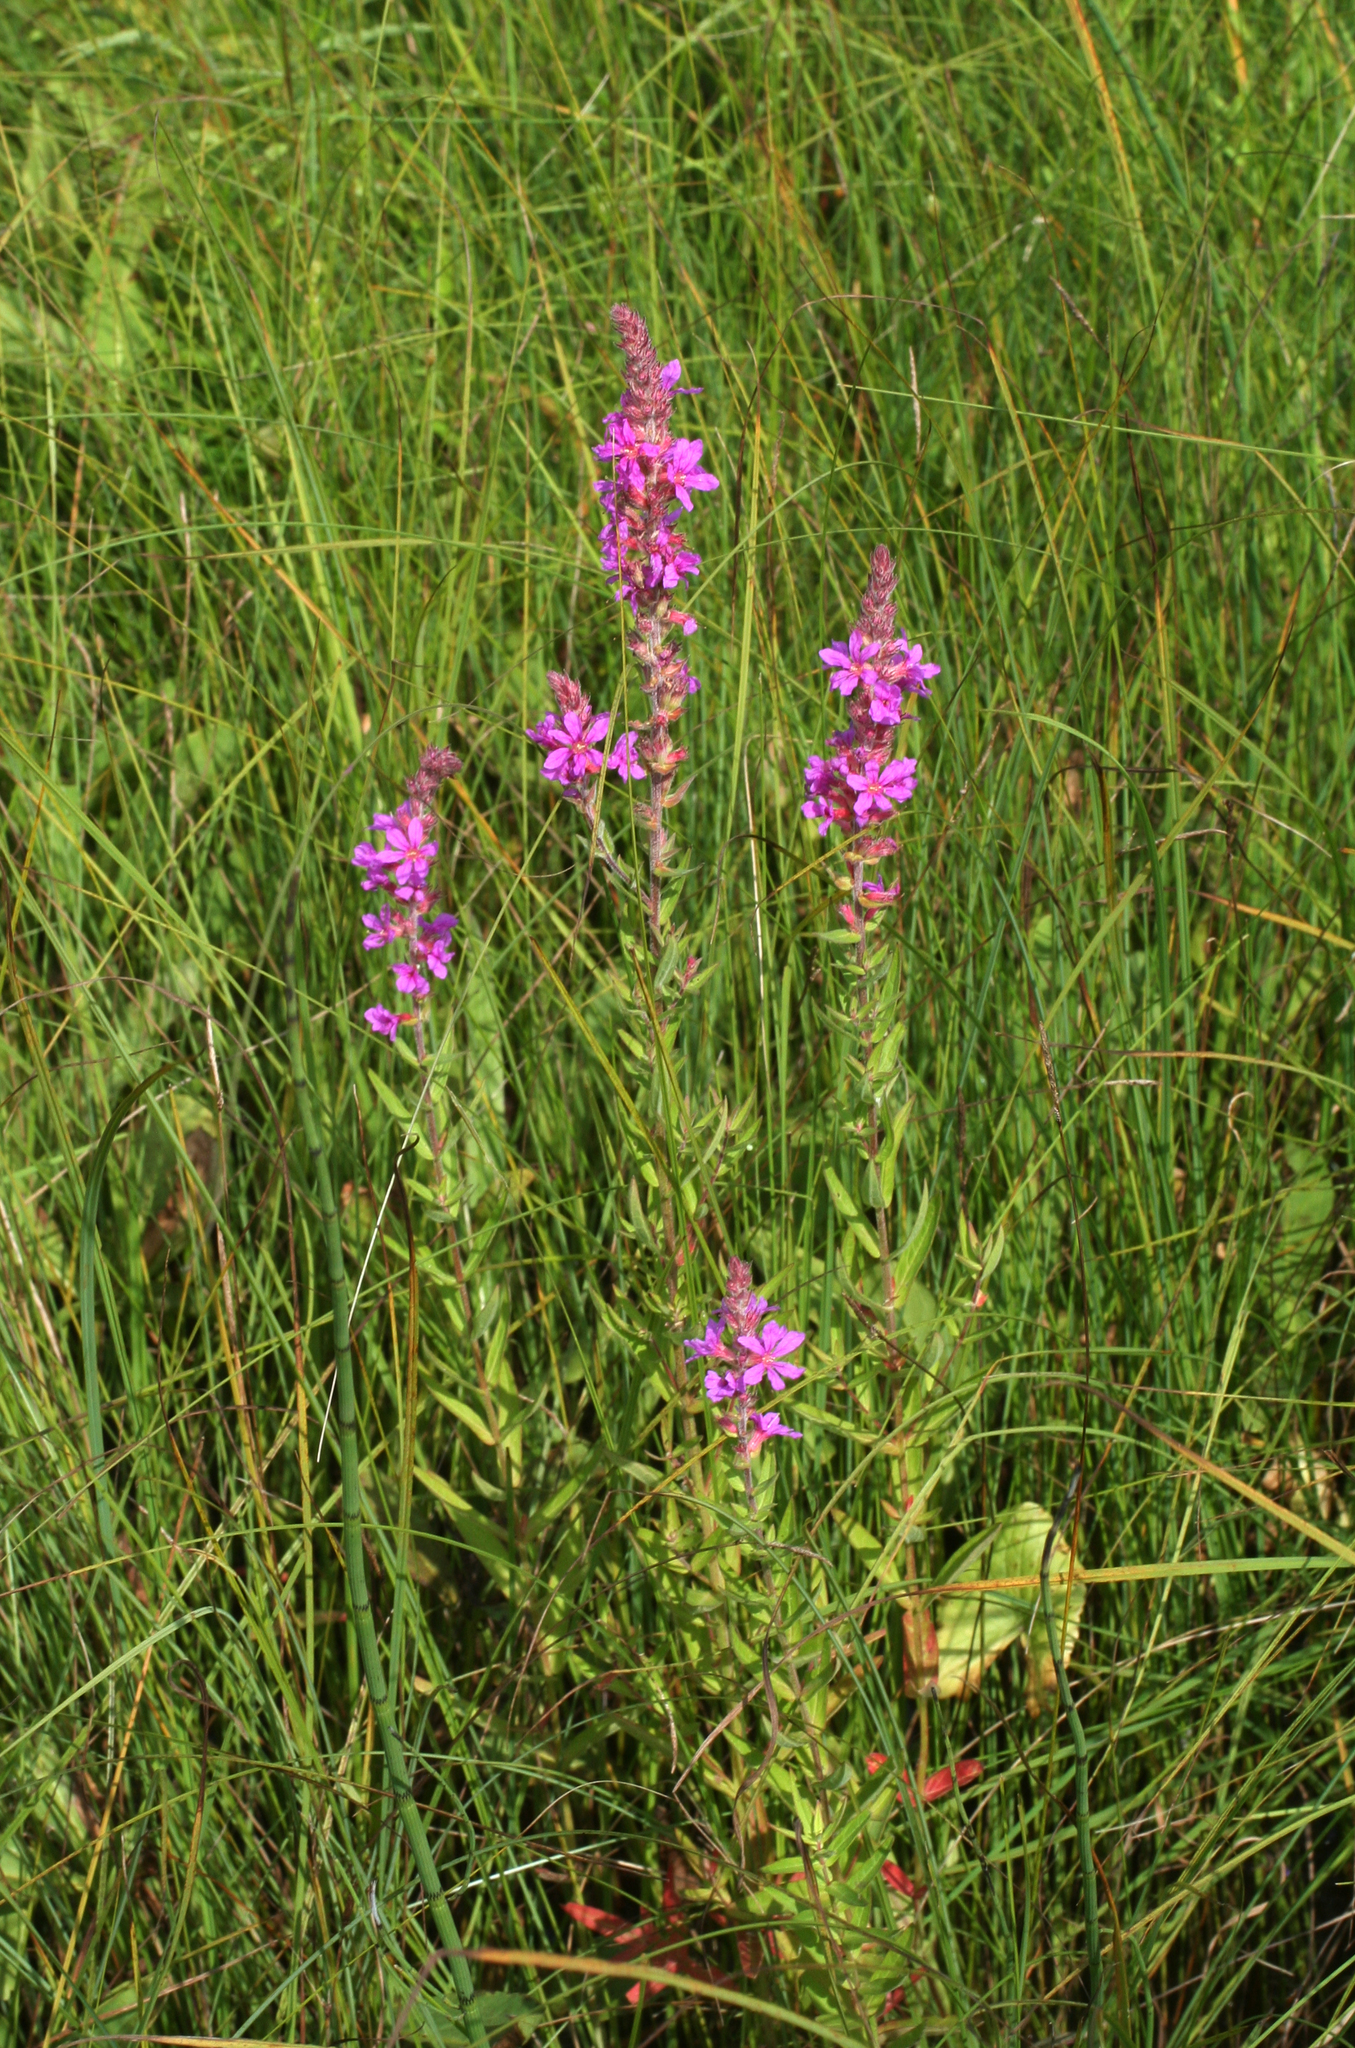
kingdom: Plantae
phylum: Tracheophyta
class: Magnoliopsida
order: Myrtales
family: Lythraceae
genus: Lythrum
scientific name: Lythrum salicaria
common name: Purple loosestrife
